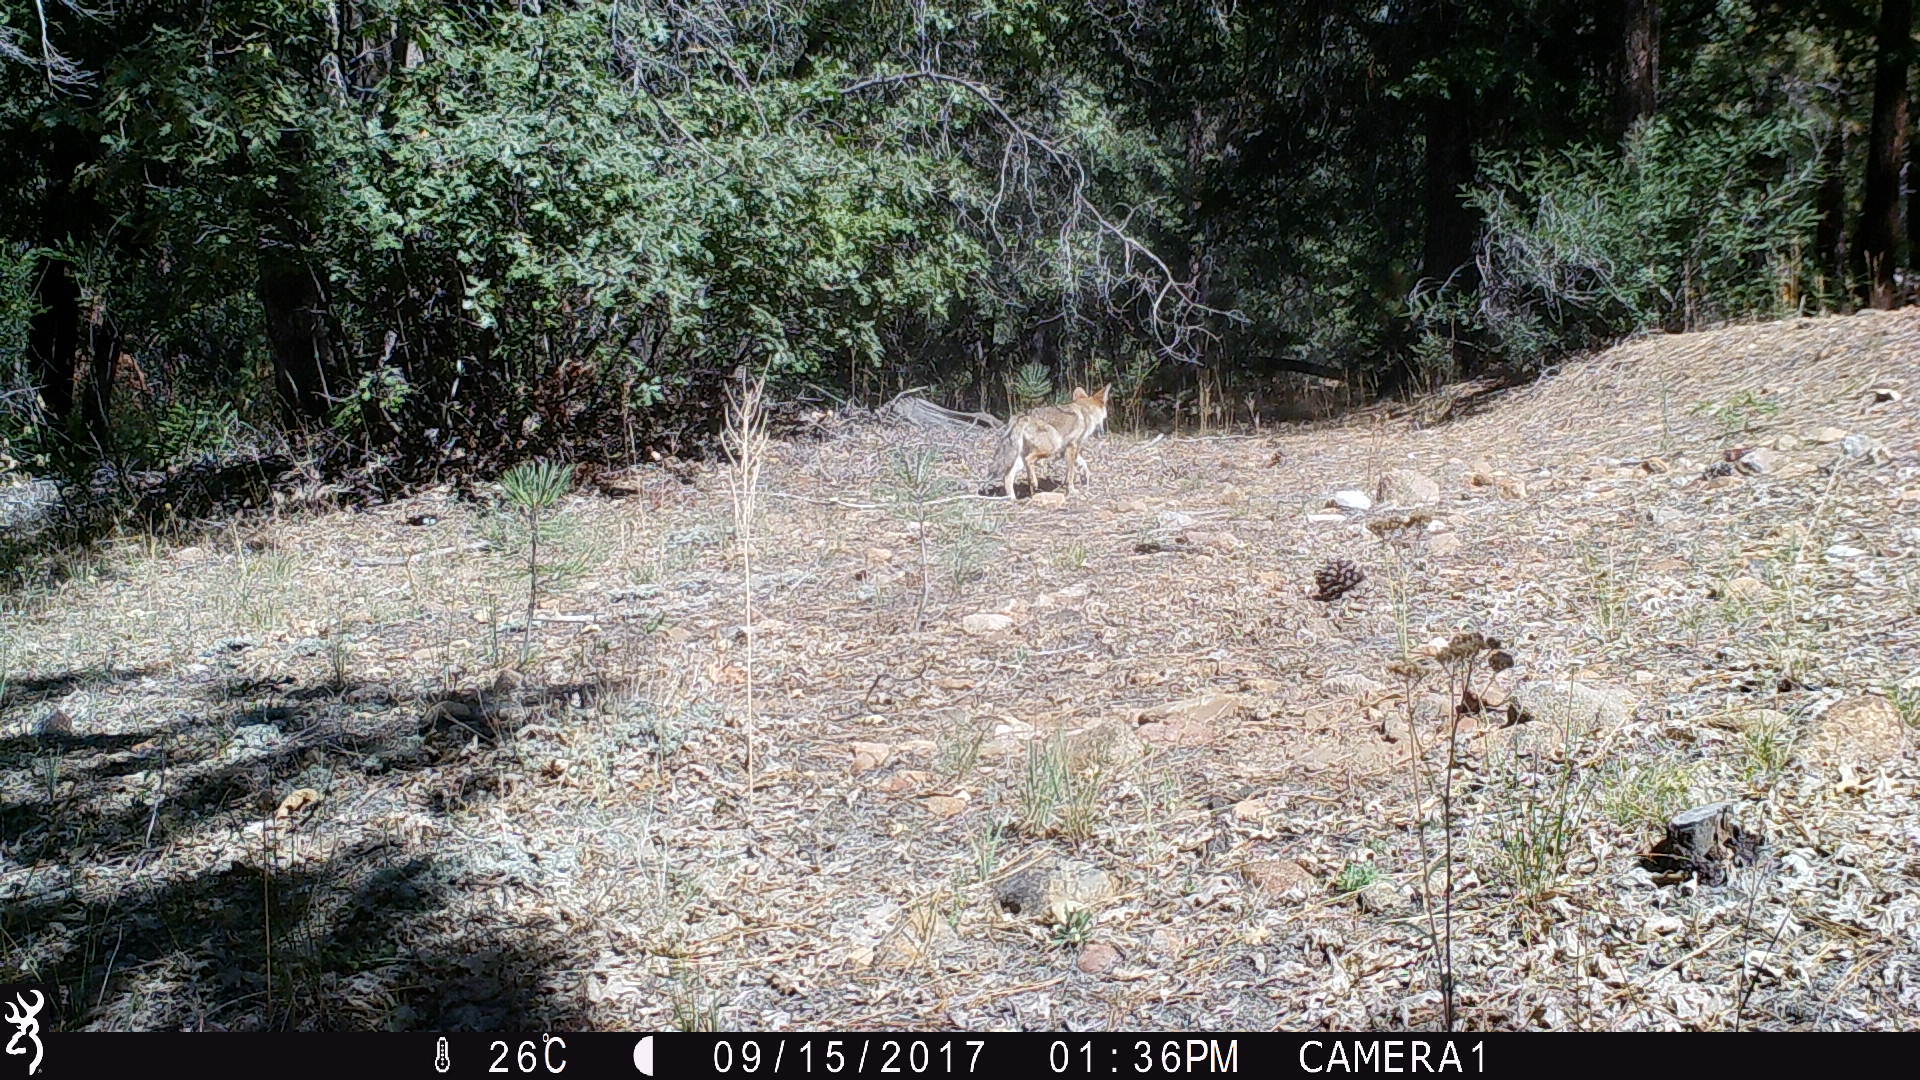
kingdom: Animalia
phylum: Chordata
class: Mammalia
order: Carnivora
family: Canidae
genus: Canis
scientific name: Canis latrans
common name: Coyote
